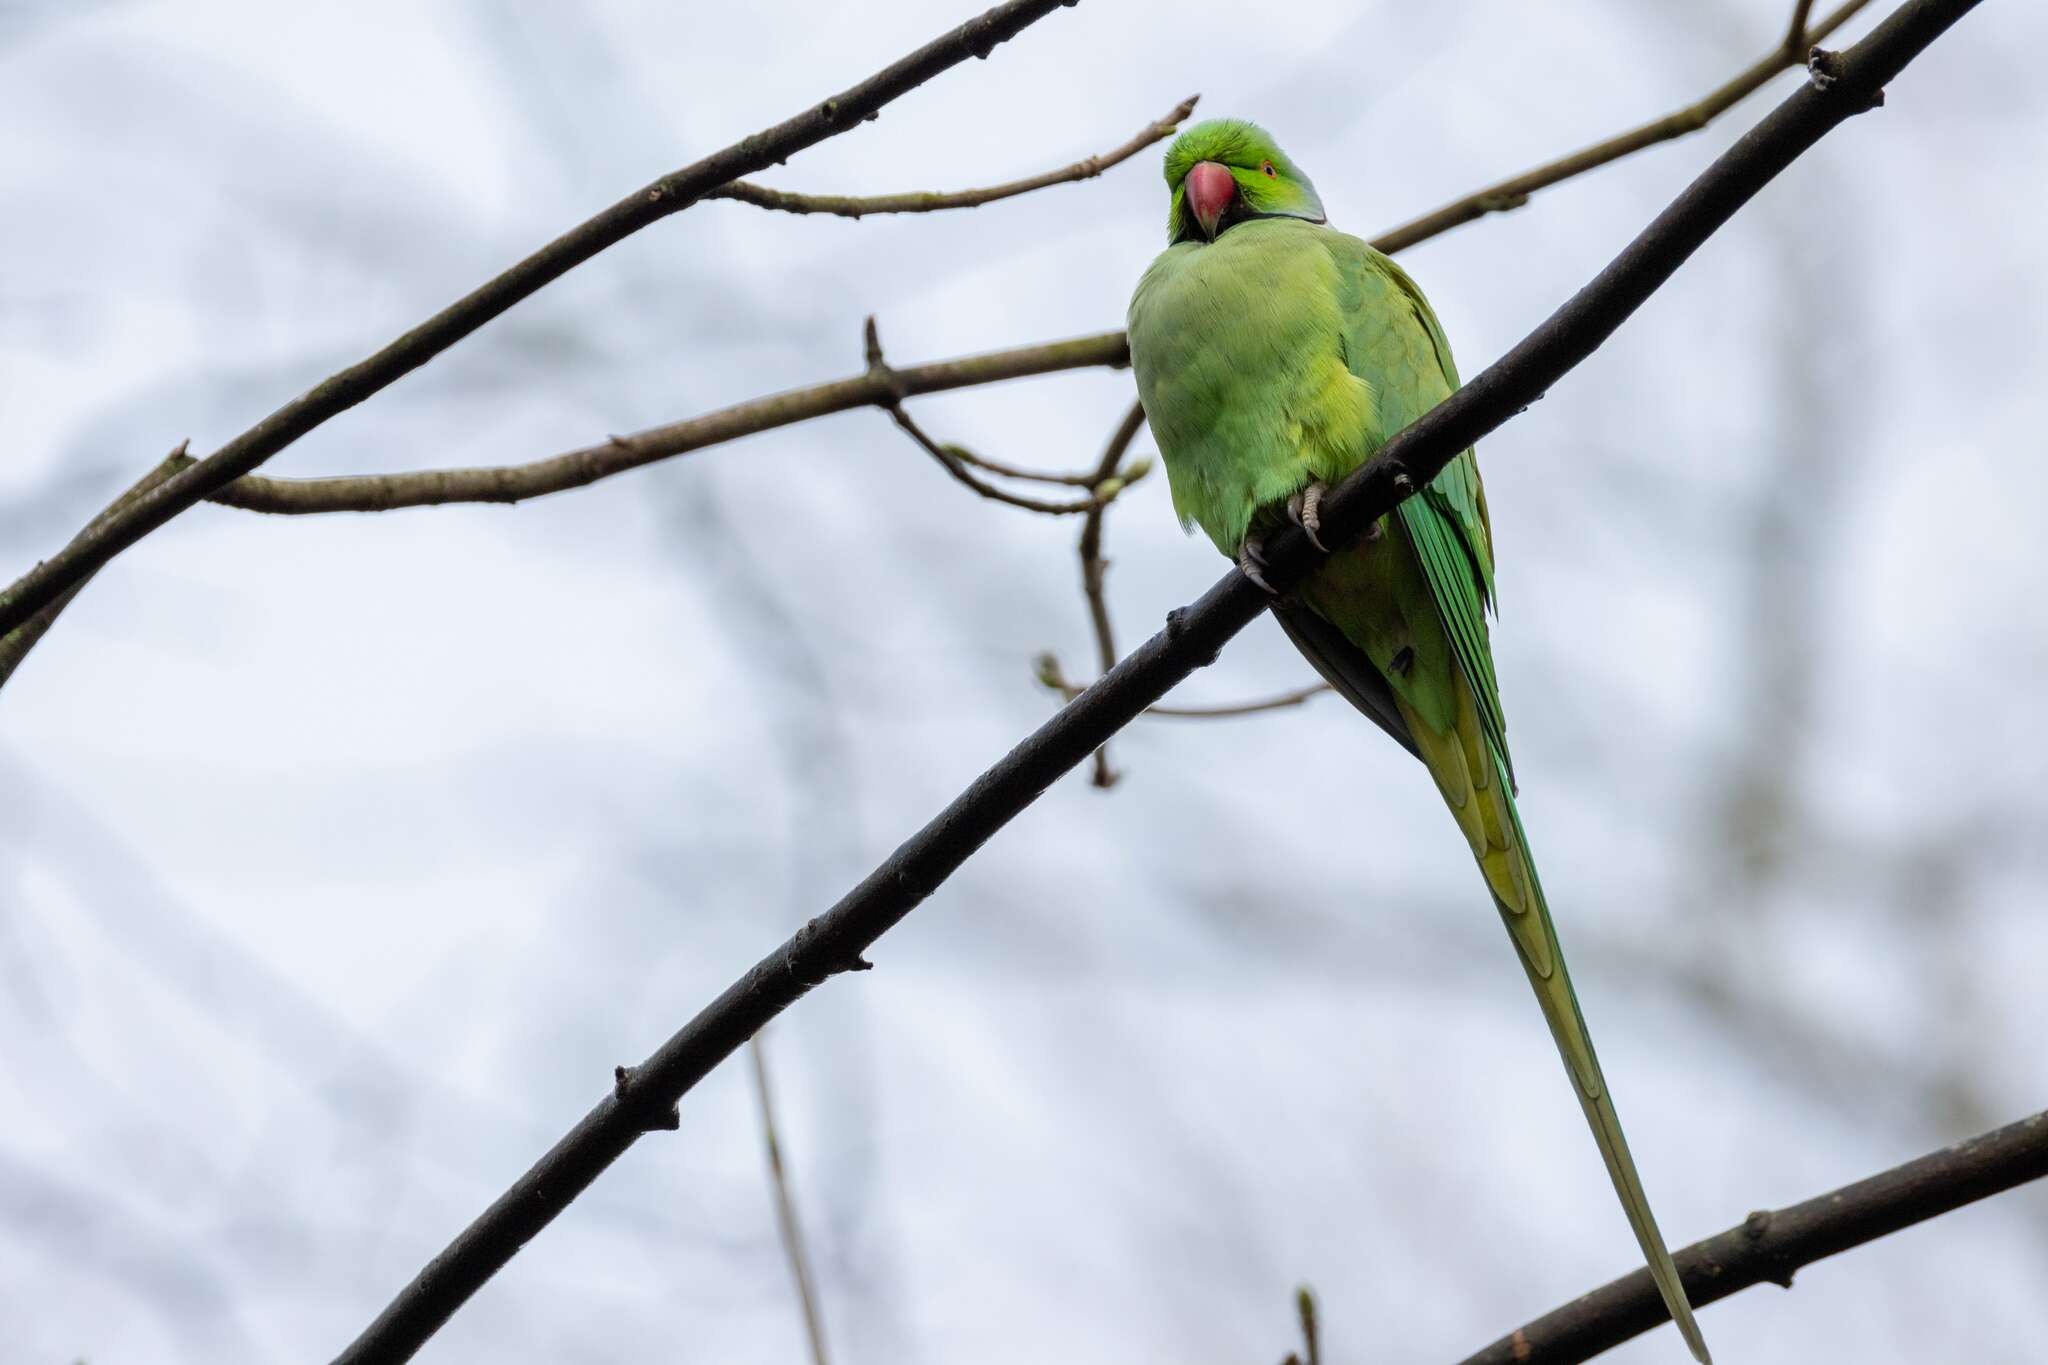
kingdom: Animalia
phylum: Chordata
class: Aves
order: Psittaciformes
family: Psittacidae
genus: Psittacula
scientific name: Psittacula krameri
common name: Rose-ringed parakeet
